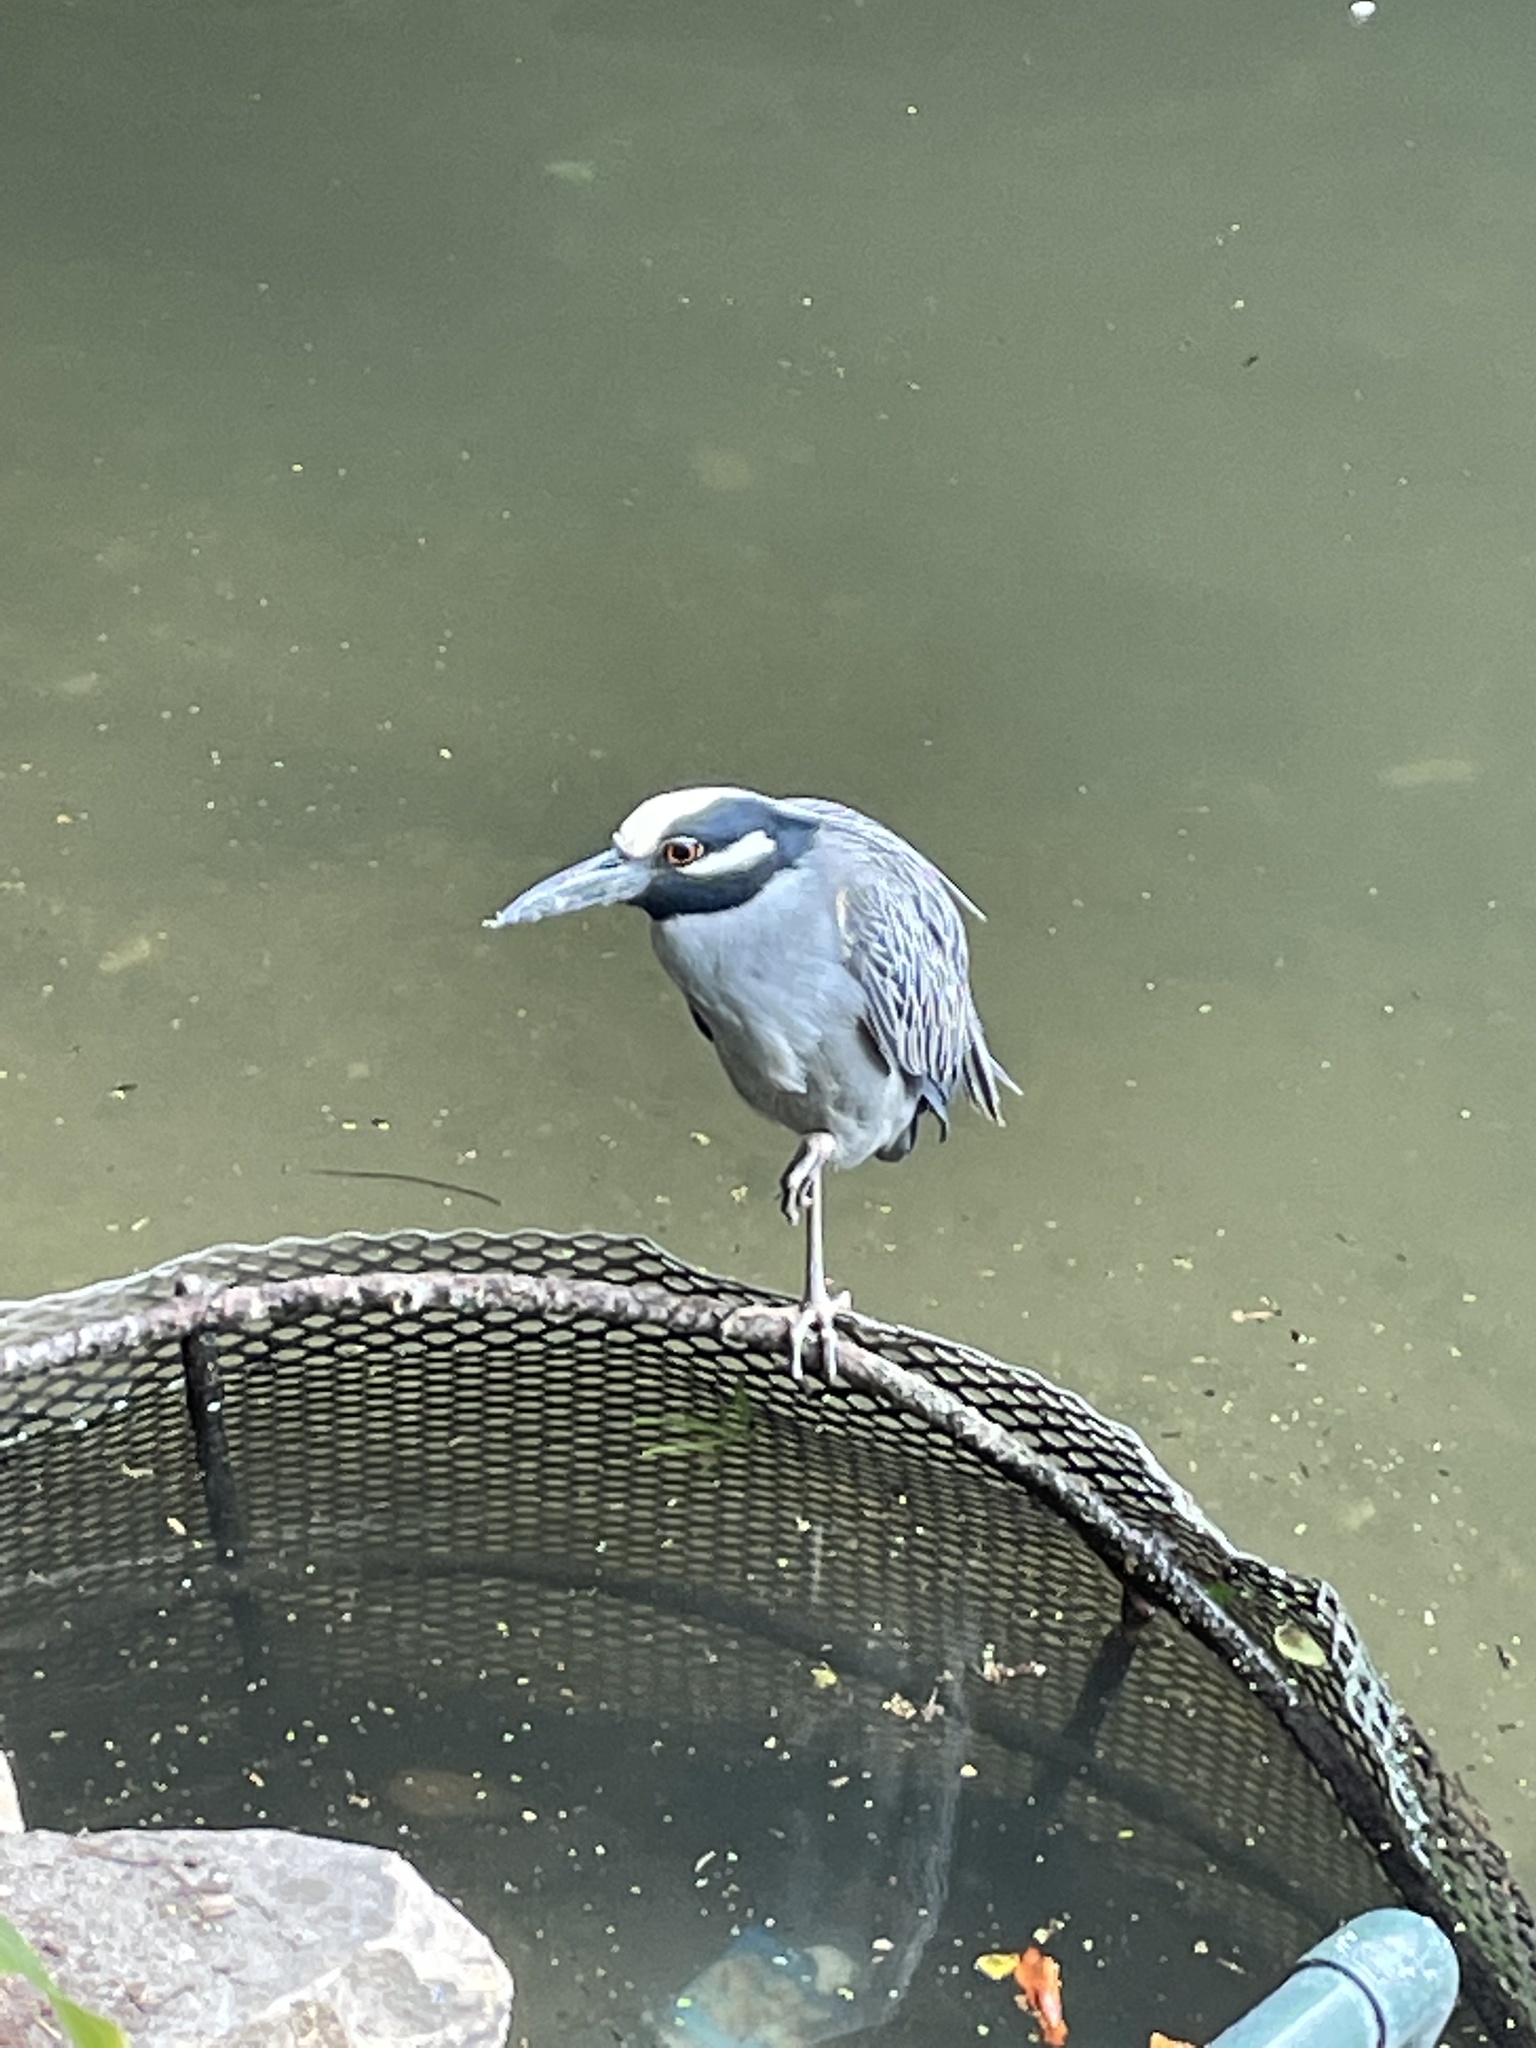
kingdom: Animalia
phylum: Chordata
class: Aves
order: Pelecaniformes
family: Ardeidae
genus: Nyctanassa
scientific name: Nyctanassa violacea
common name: Yellow-crowned night heron
